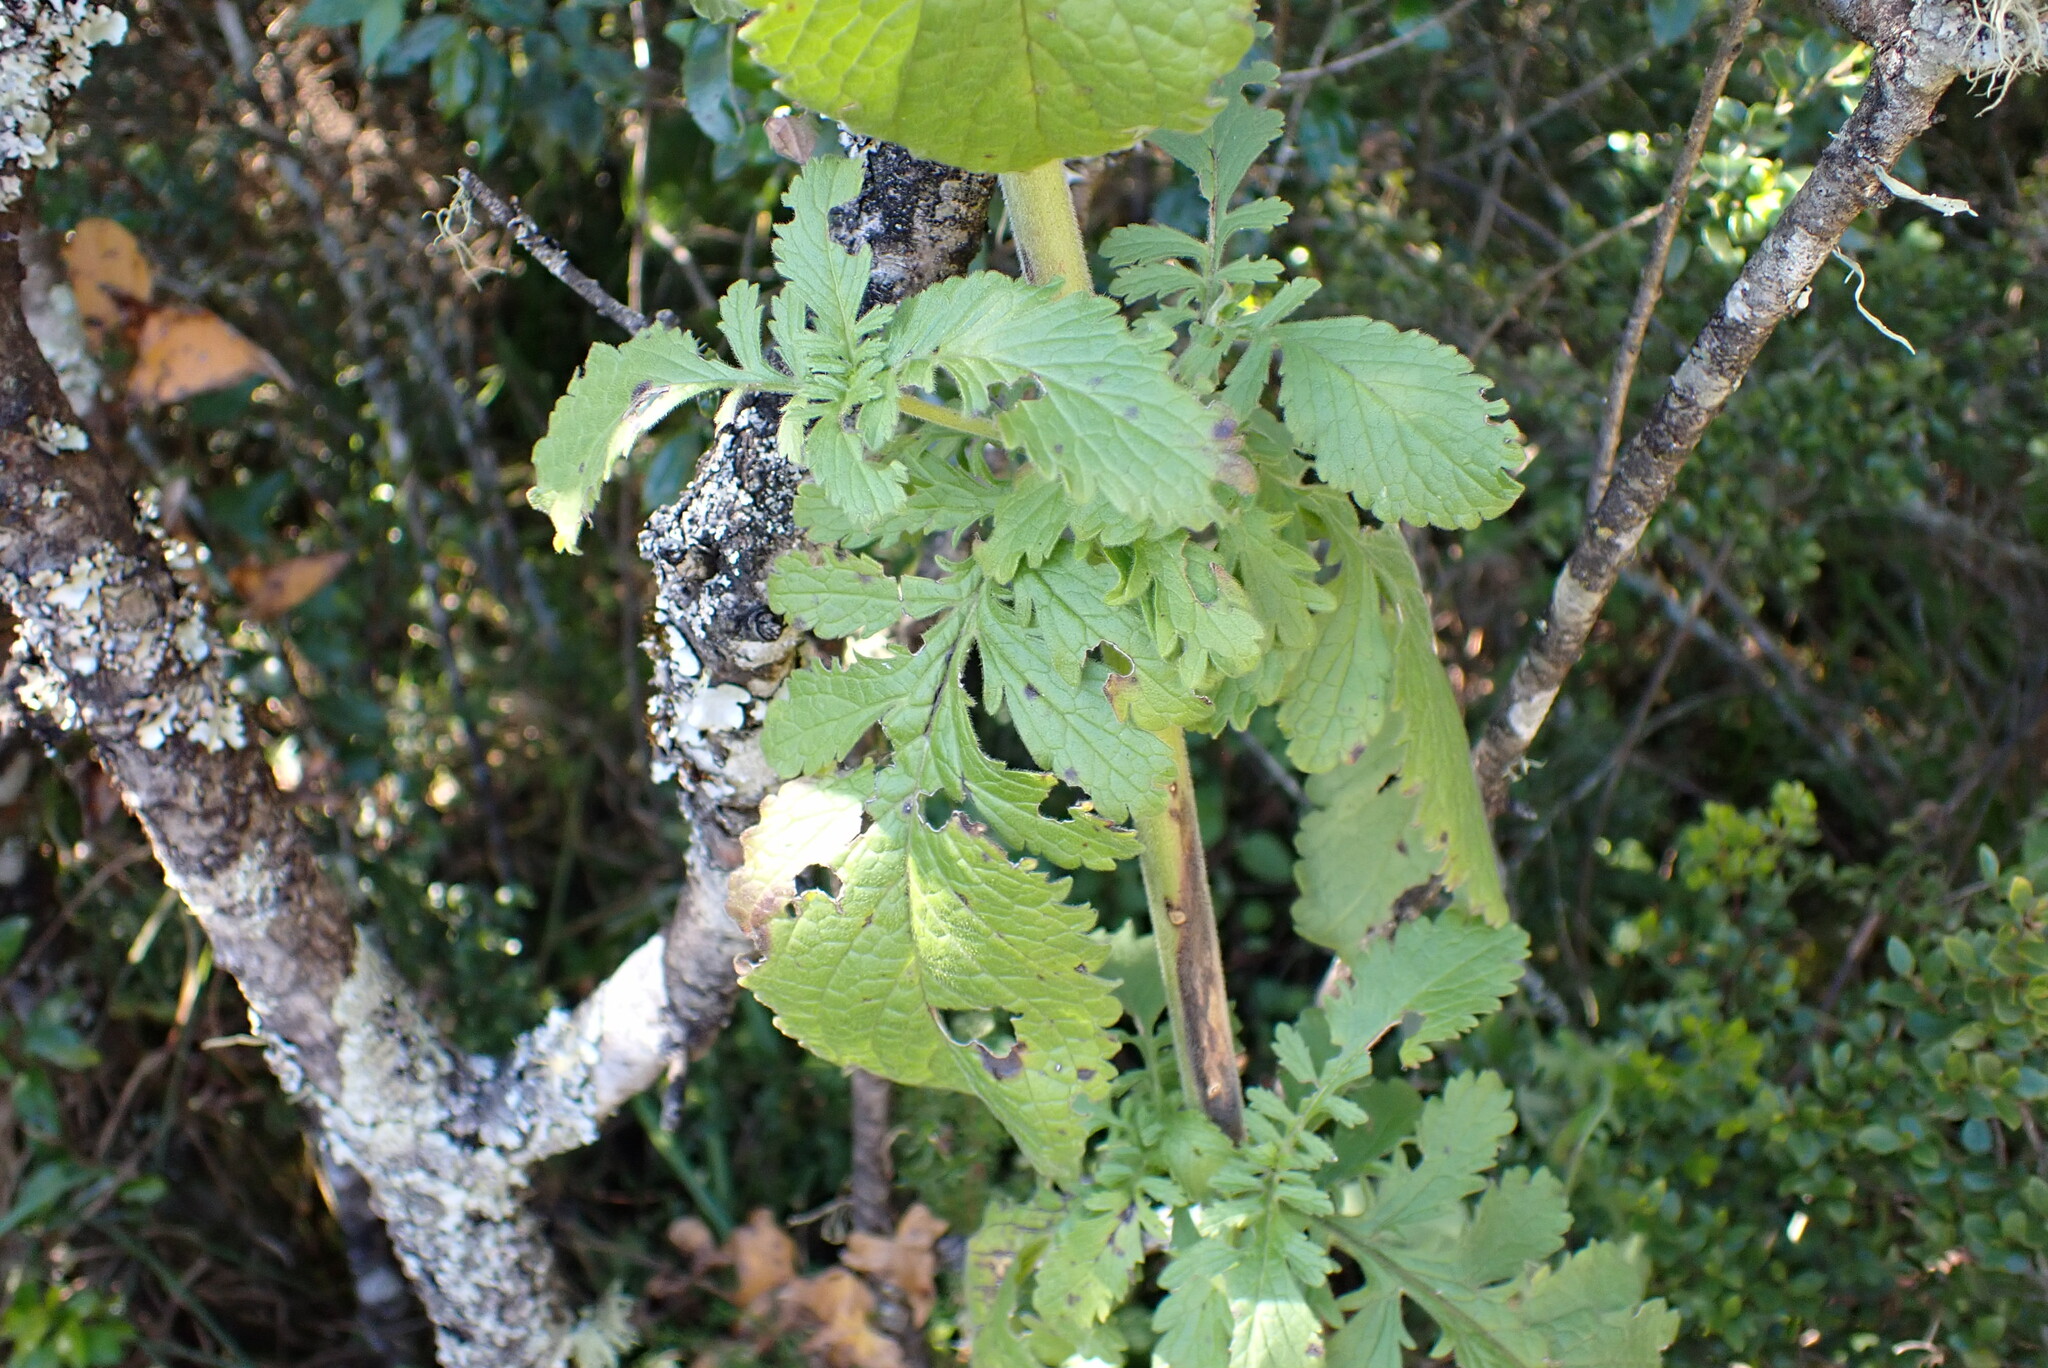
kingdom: Plantae
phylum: Tracheophyta
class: Magnoliopsida
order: Dipsacales
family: Caprifoliaceae
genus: Scabiosa
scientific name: Scabiosa drakensbergensis
